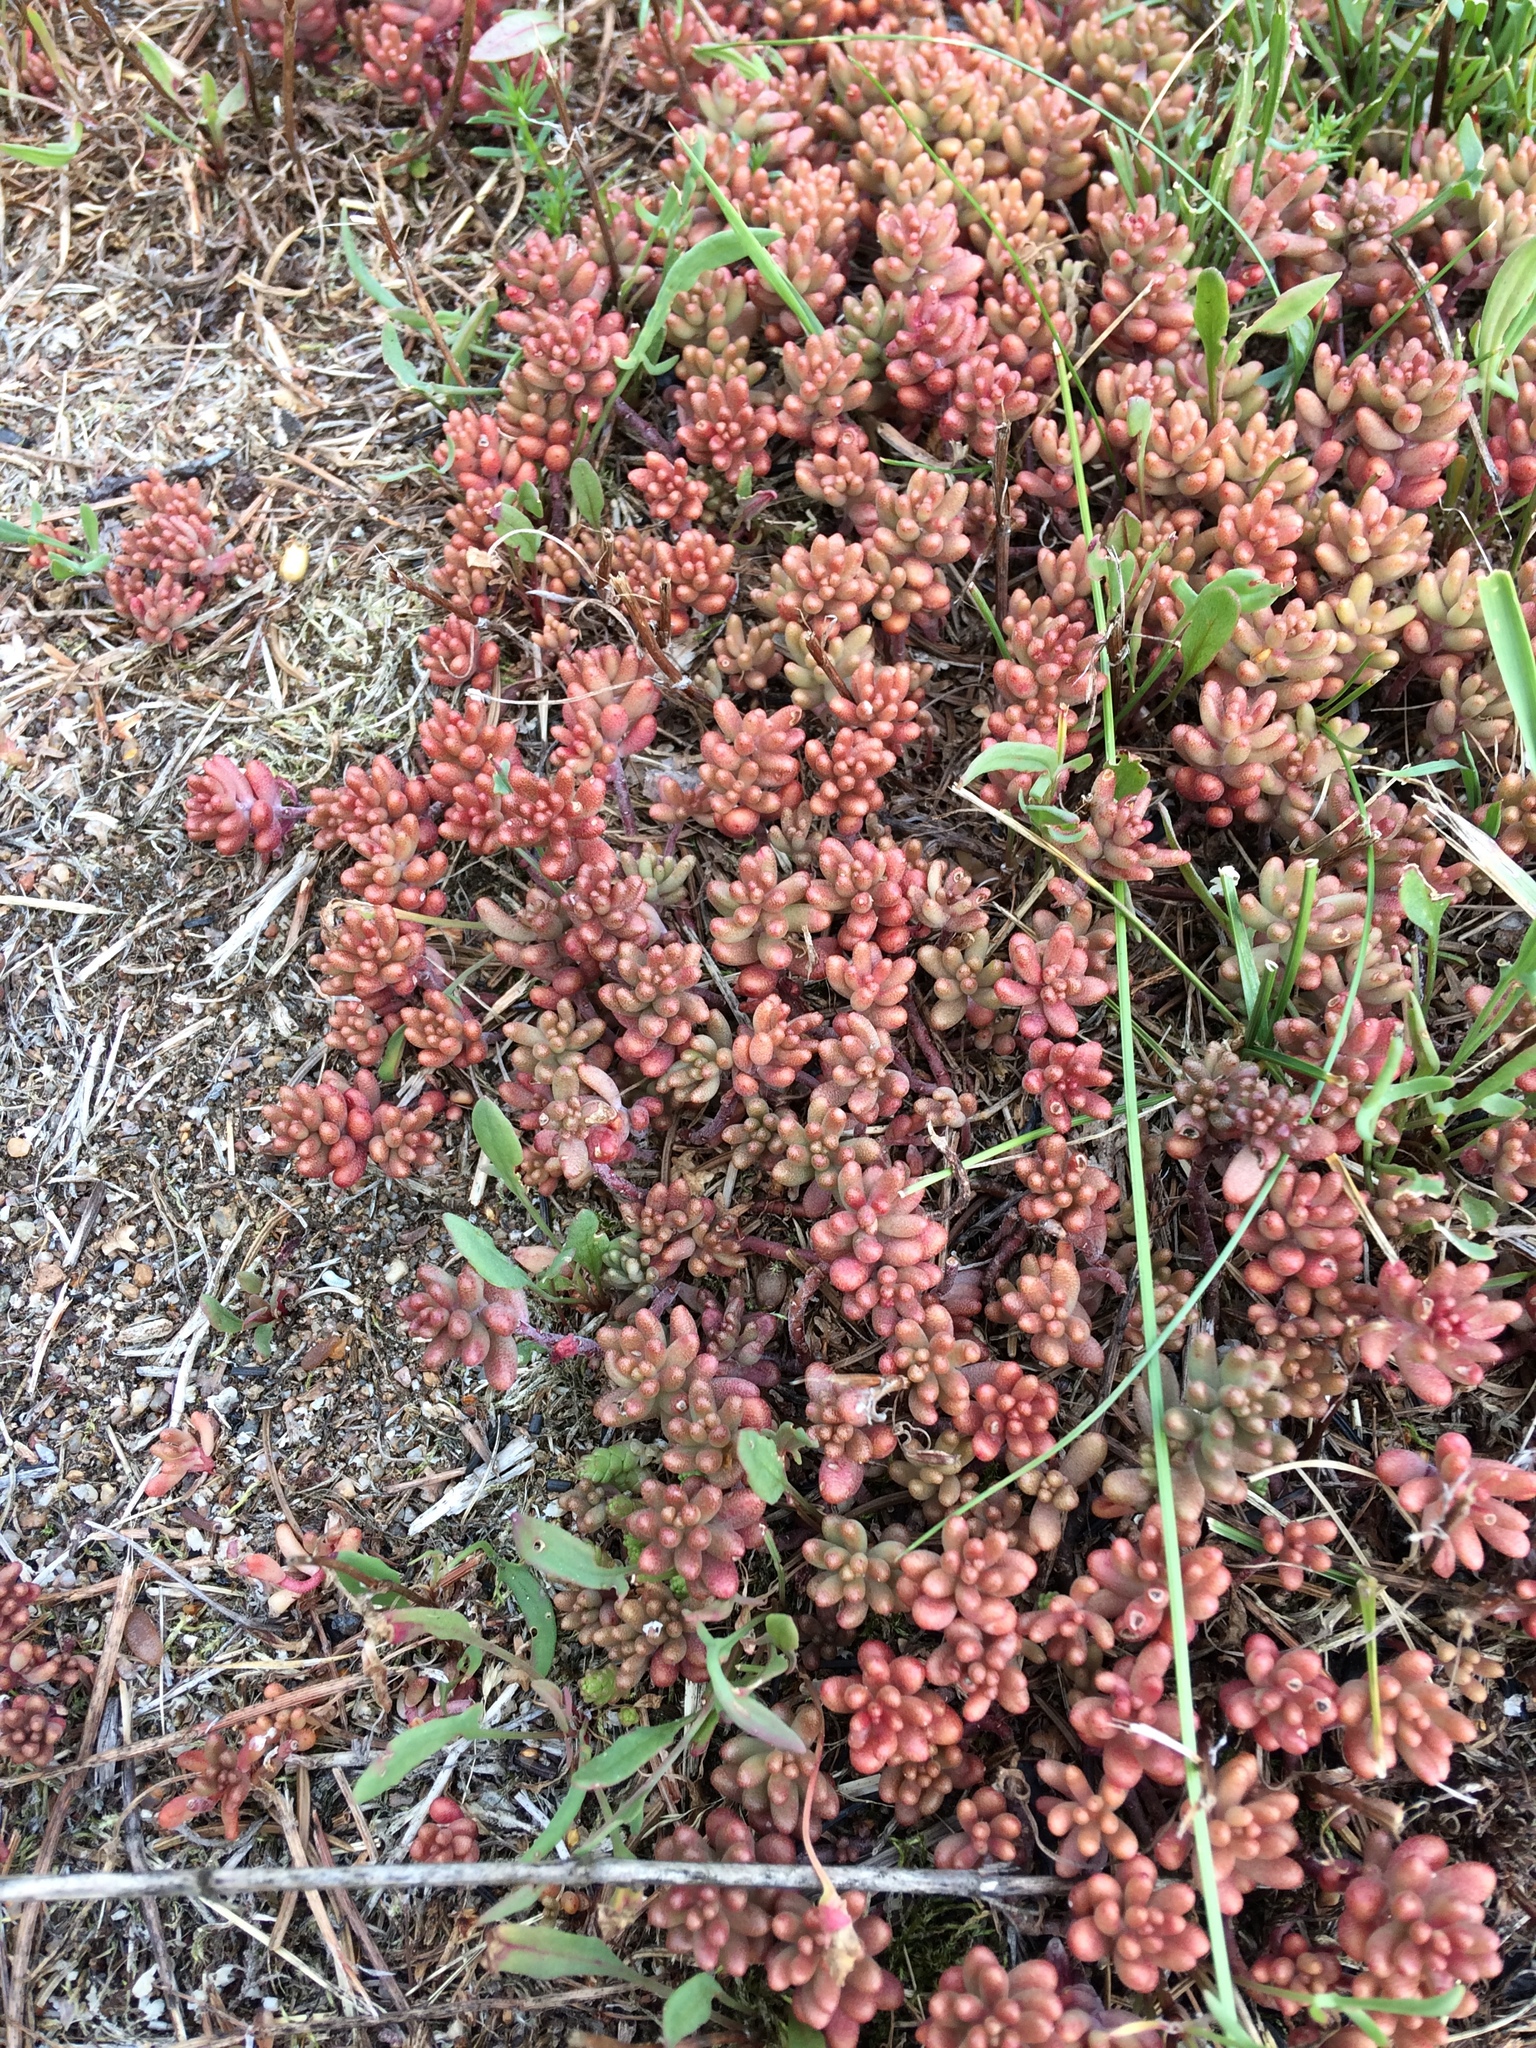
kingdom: Plantae
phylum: Tracheophyta
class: Magnoliopsida
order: Saxifragales
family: Crassulaceae
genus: Sedum
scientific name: Sedum album
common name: White stonecrop
